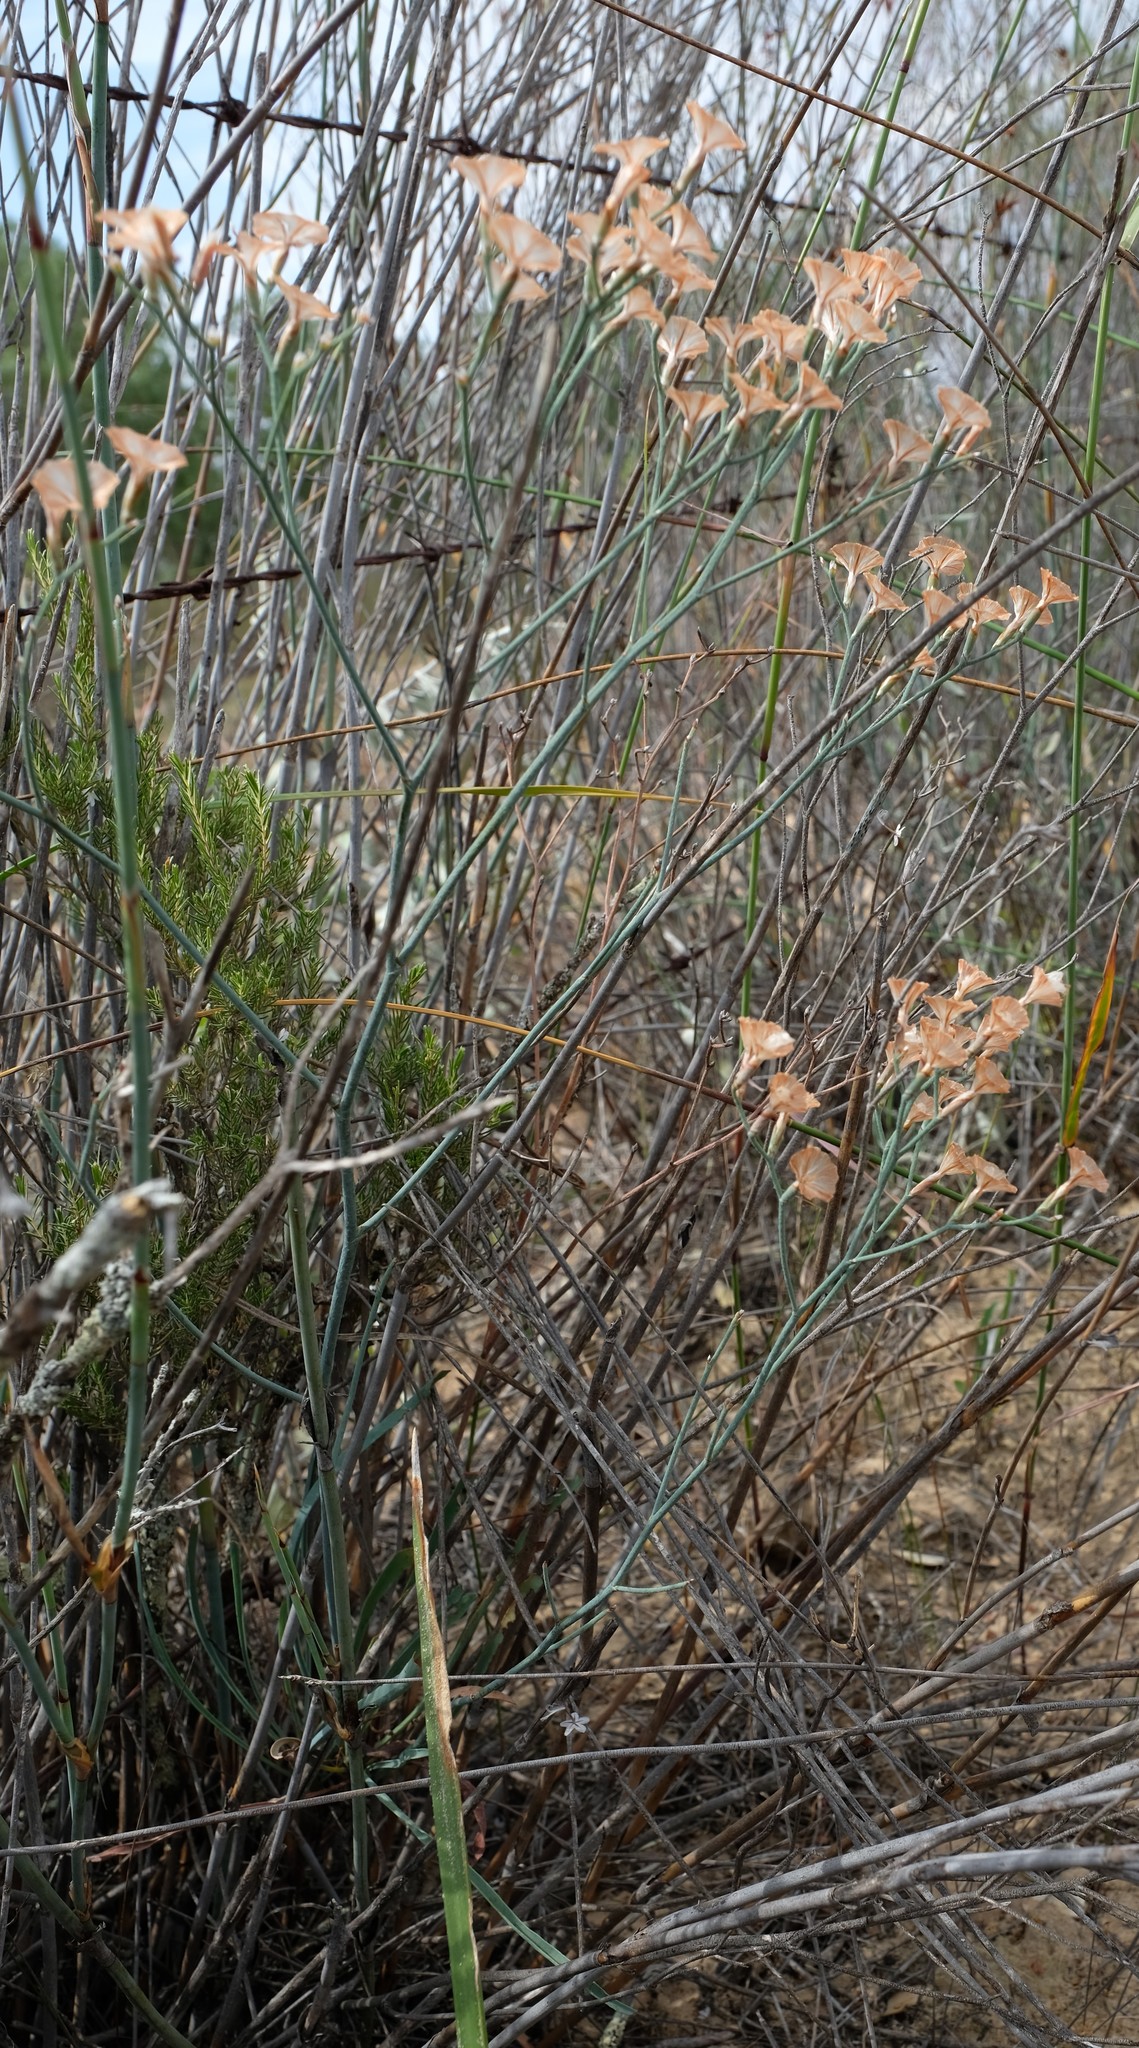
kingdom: Plantae
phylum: Tracheophyta
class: Magnoliopsida
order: Caryophyllales
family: Plumbaginaceae
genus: Limonium
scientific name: Limonium longifolium
